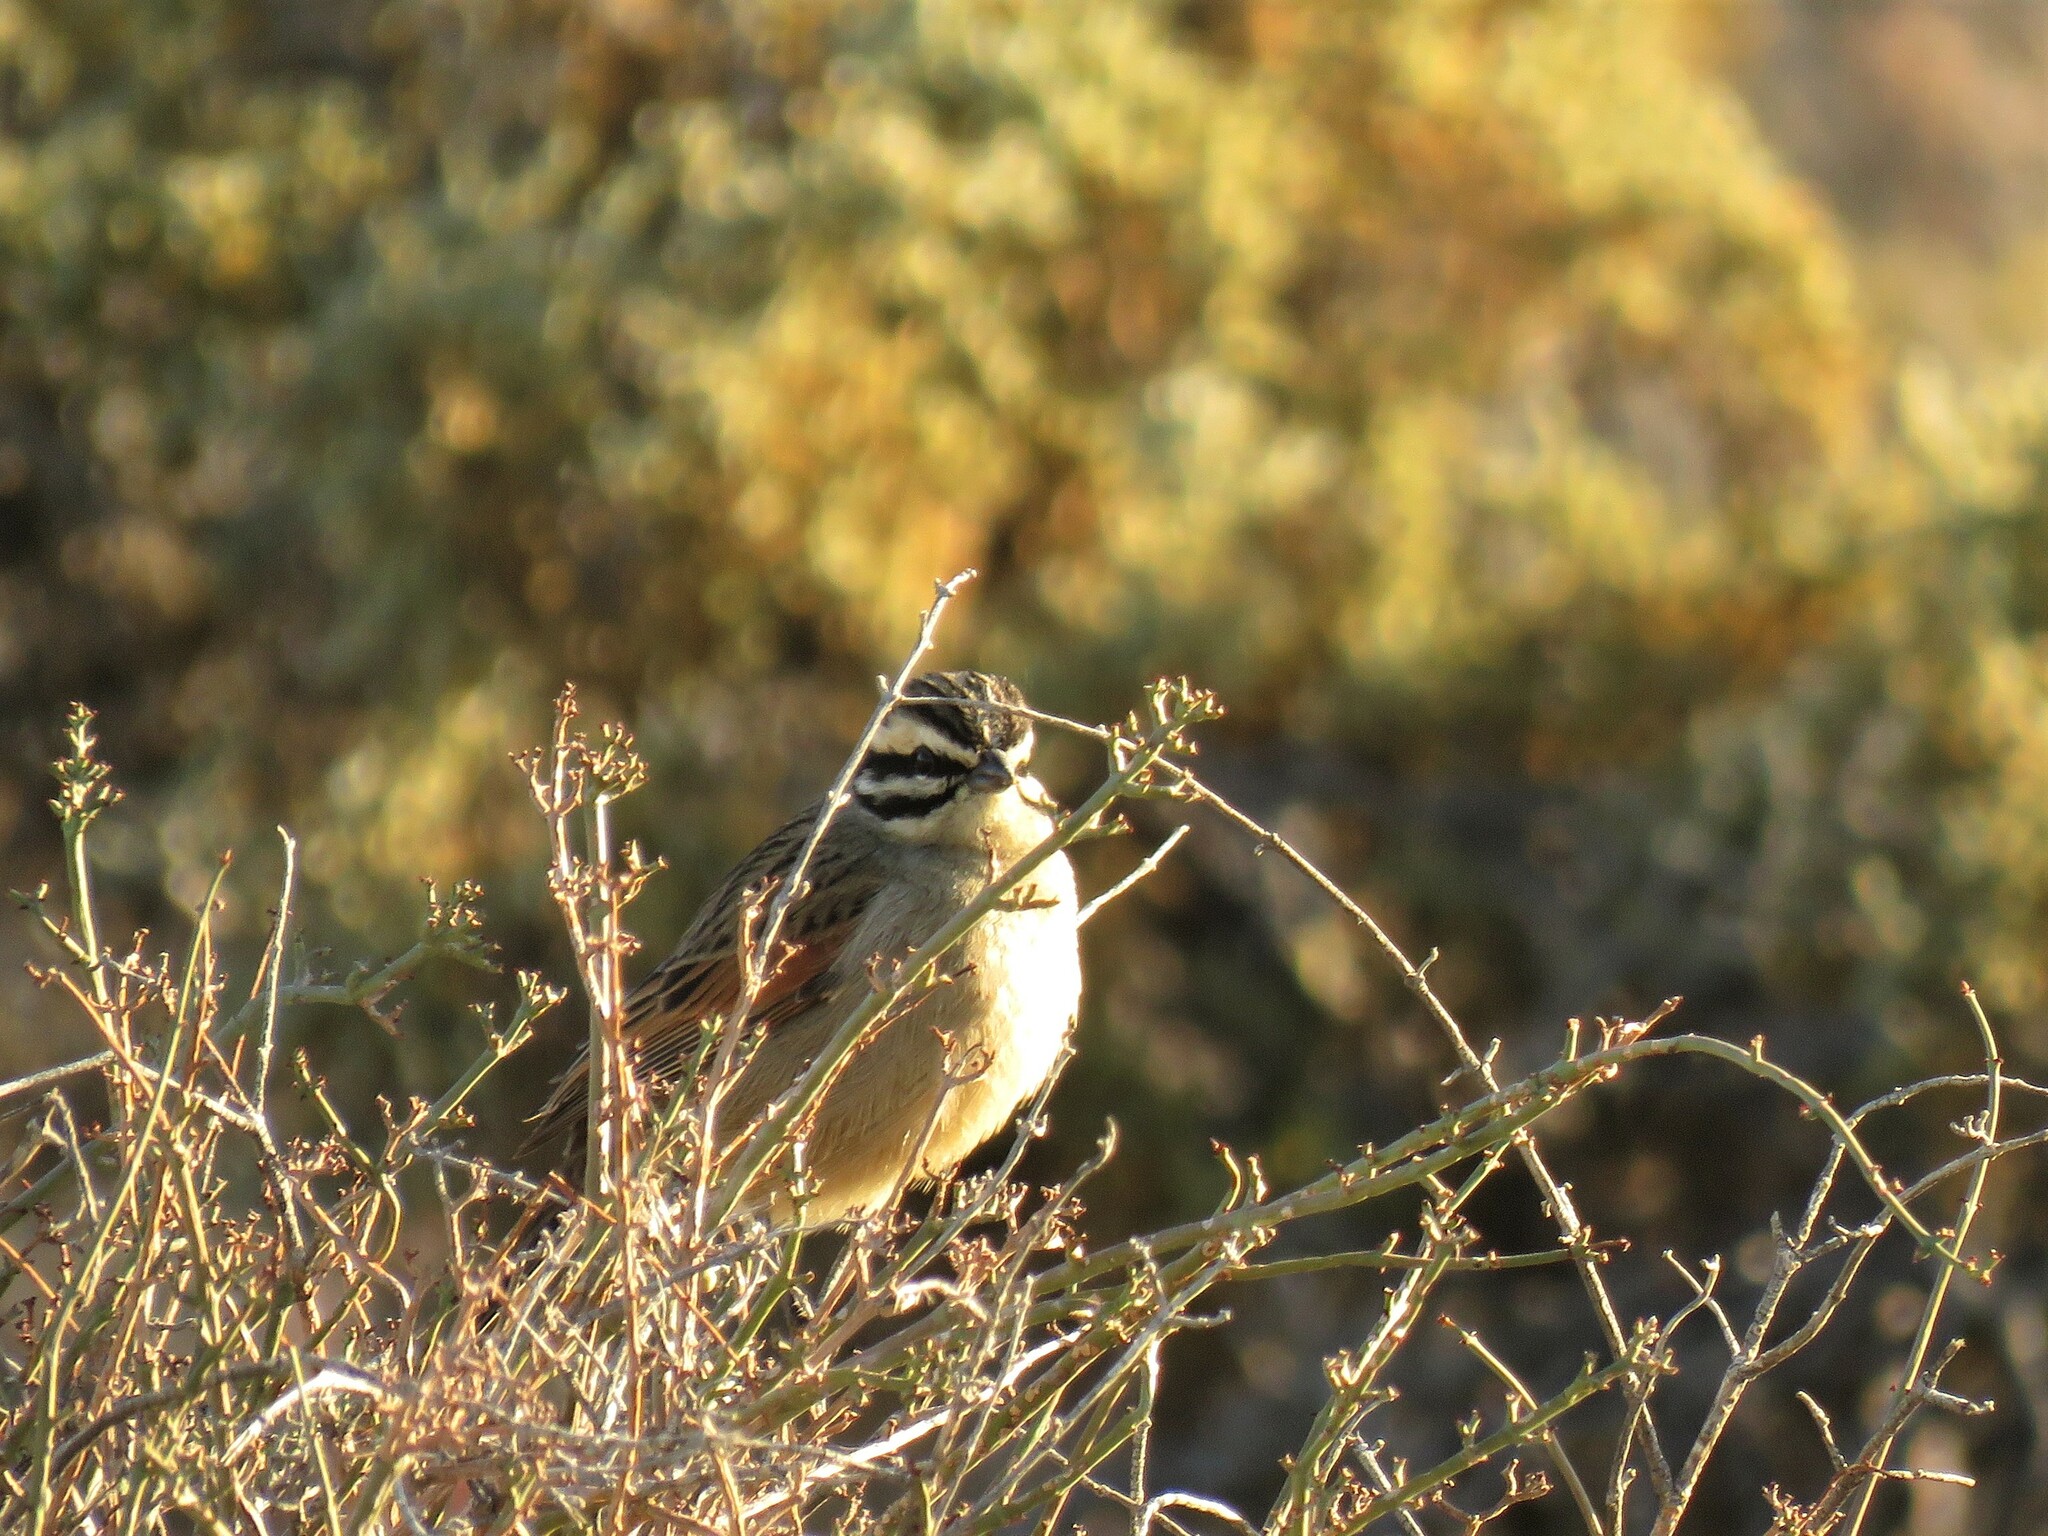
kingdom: Animalia
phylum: Chordata
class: Aves
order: Passeriformes
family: Emberizidae
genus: Emberiza
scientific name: Emberiza capensis
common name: Cape bunting
